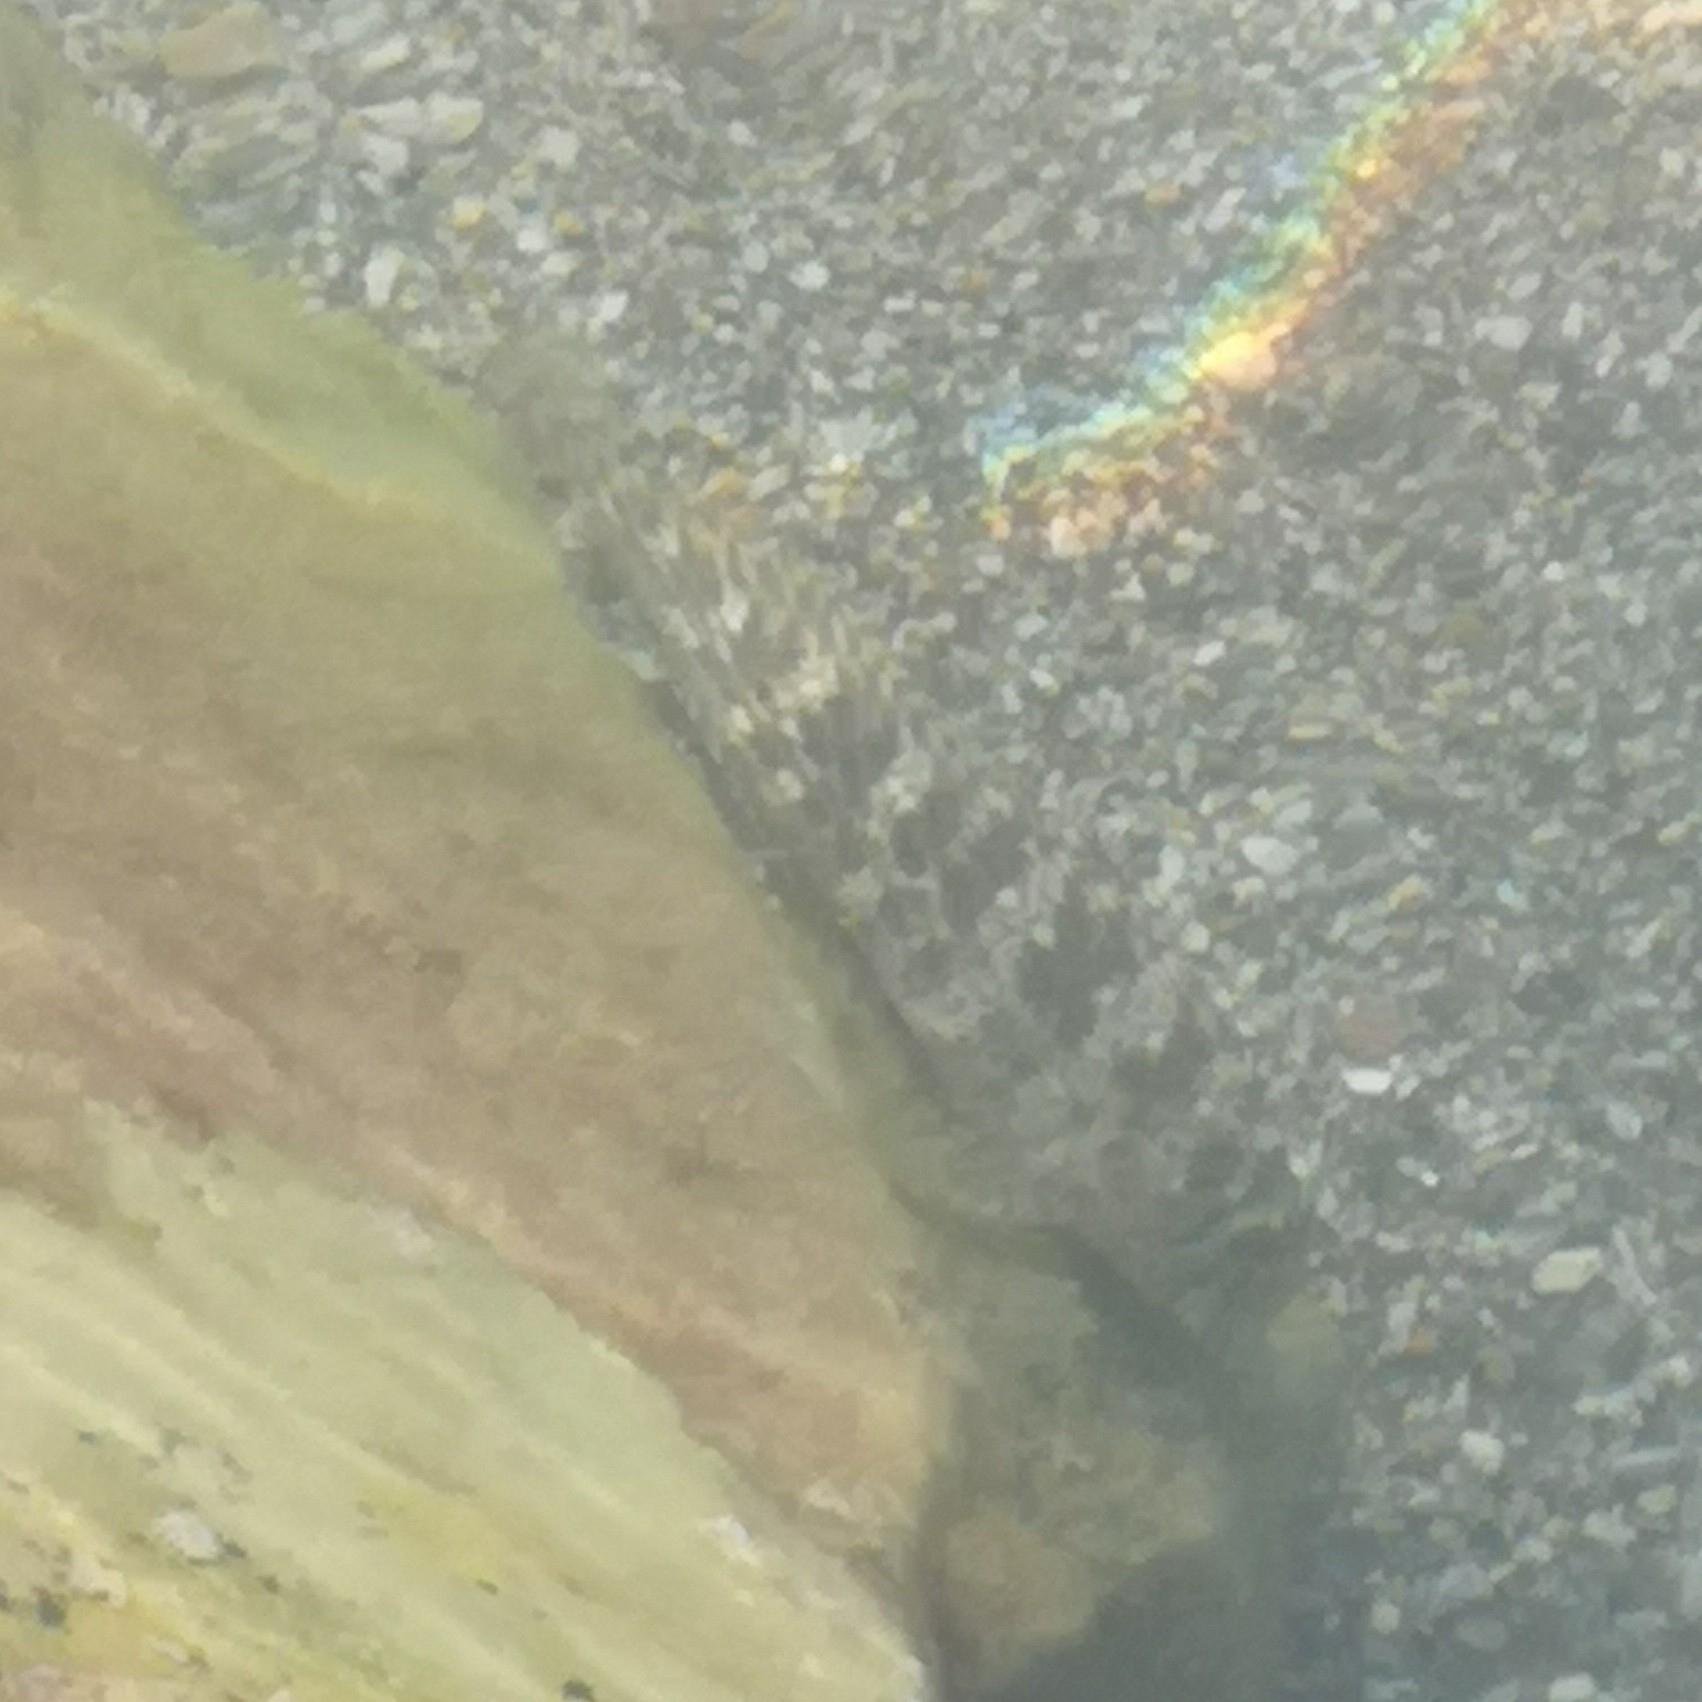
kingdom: Animalia
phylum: Chordata
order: Perciformes
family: Blenniidae
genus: Parablennius
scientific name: Parablennius sanguinolentus
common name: Black sea blenny
